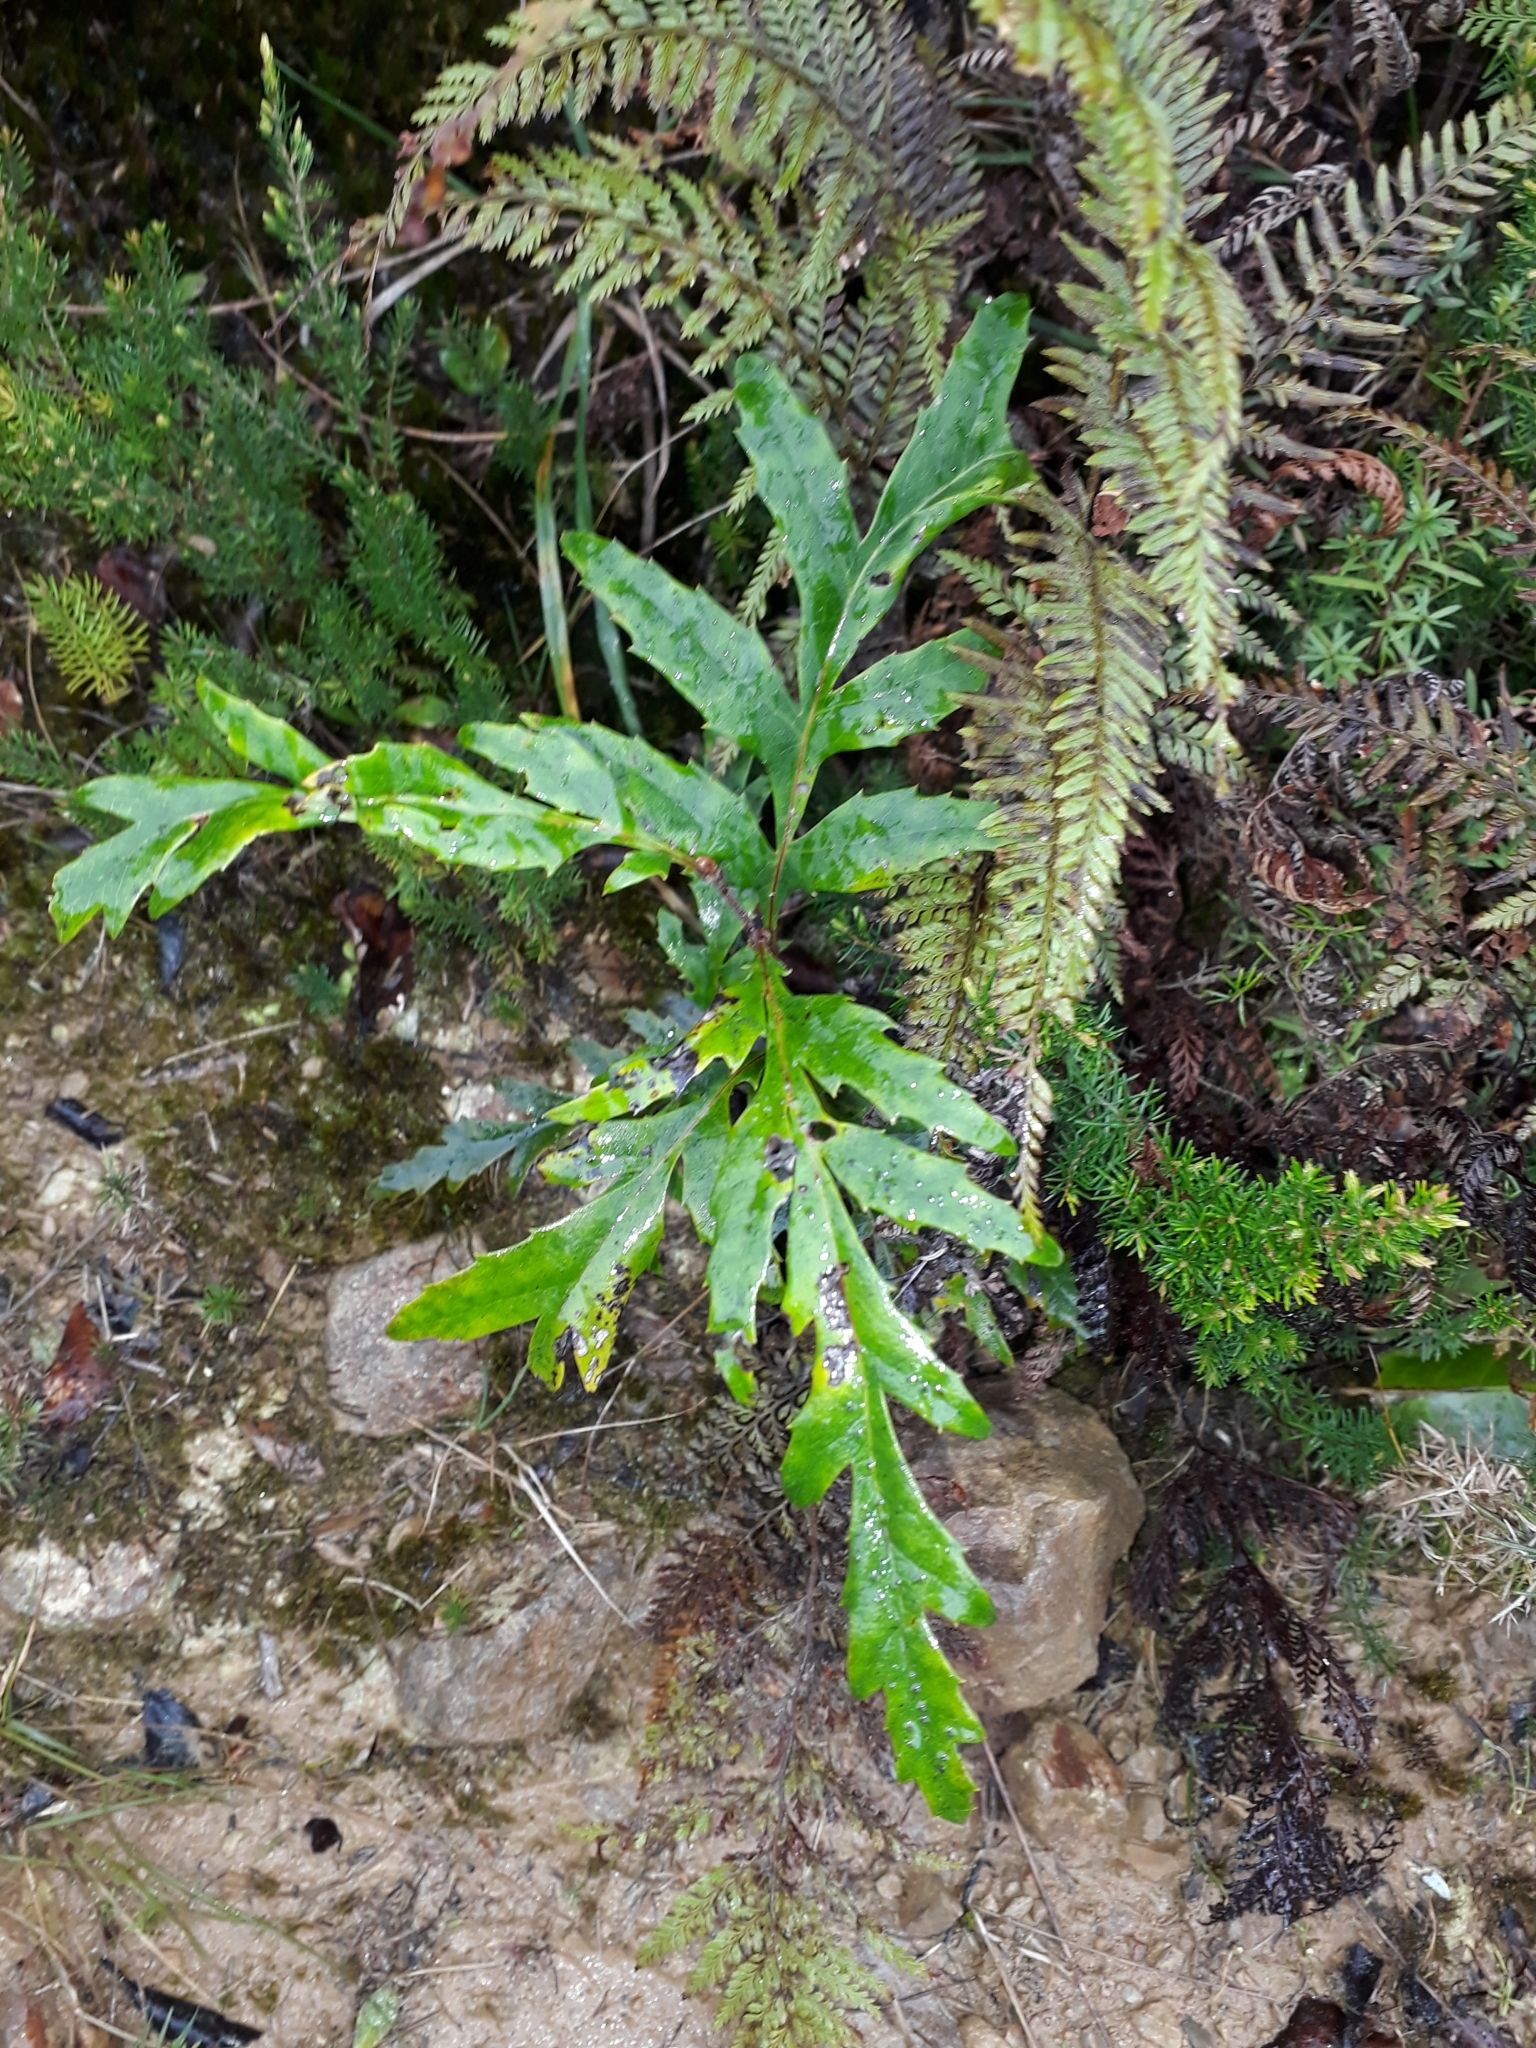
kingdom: Plantae
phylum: Tracheophyta
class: Magnoliopsida
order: Proteales
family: Proteaceae
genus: Lomatia
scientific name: Lomatia fraseri
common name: Forest lomatia
